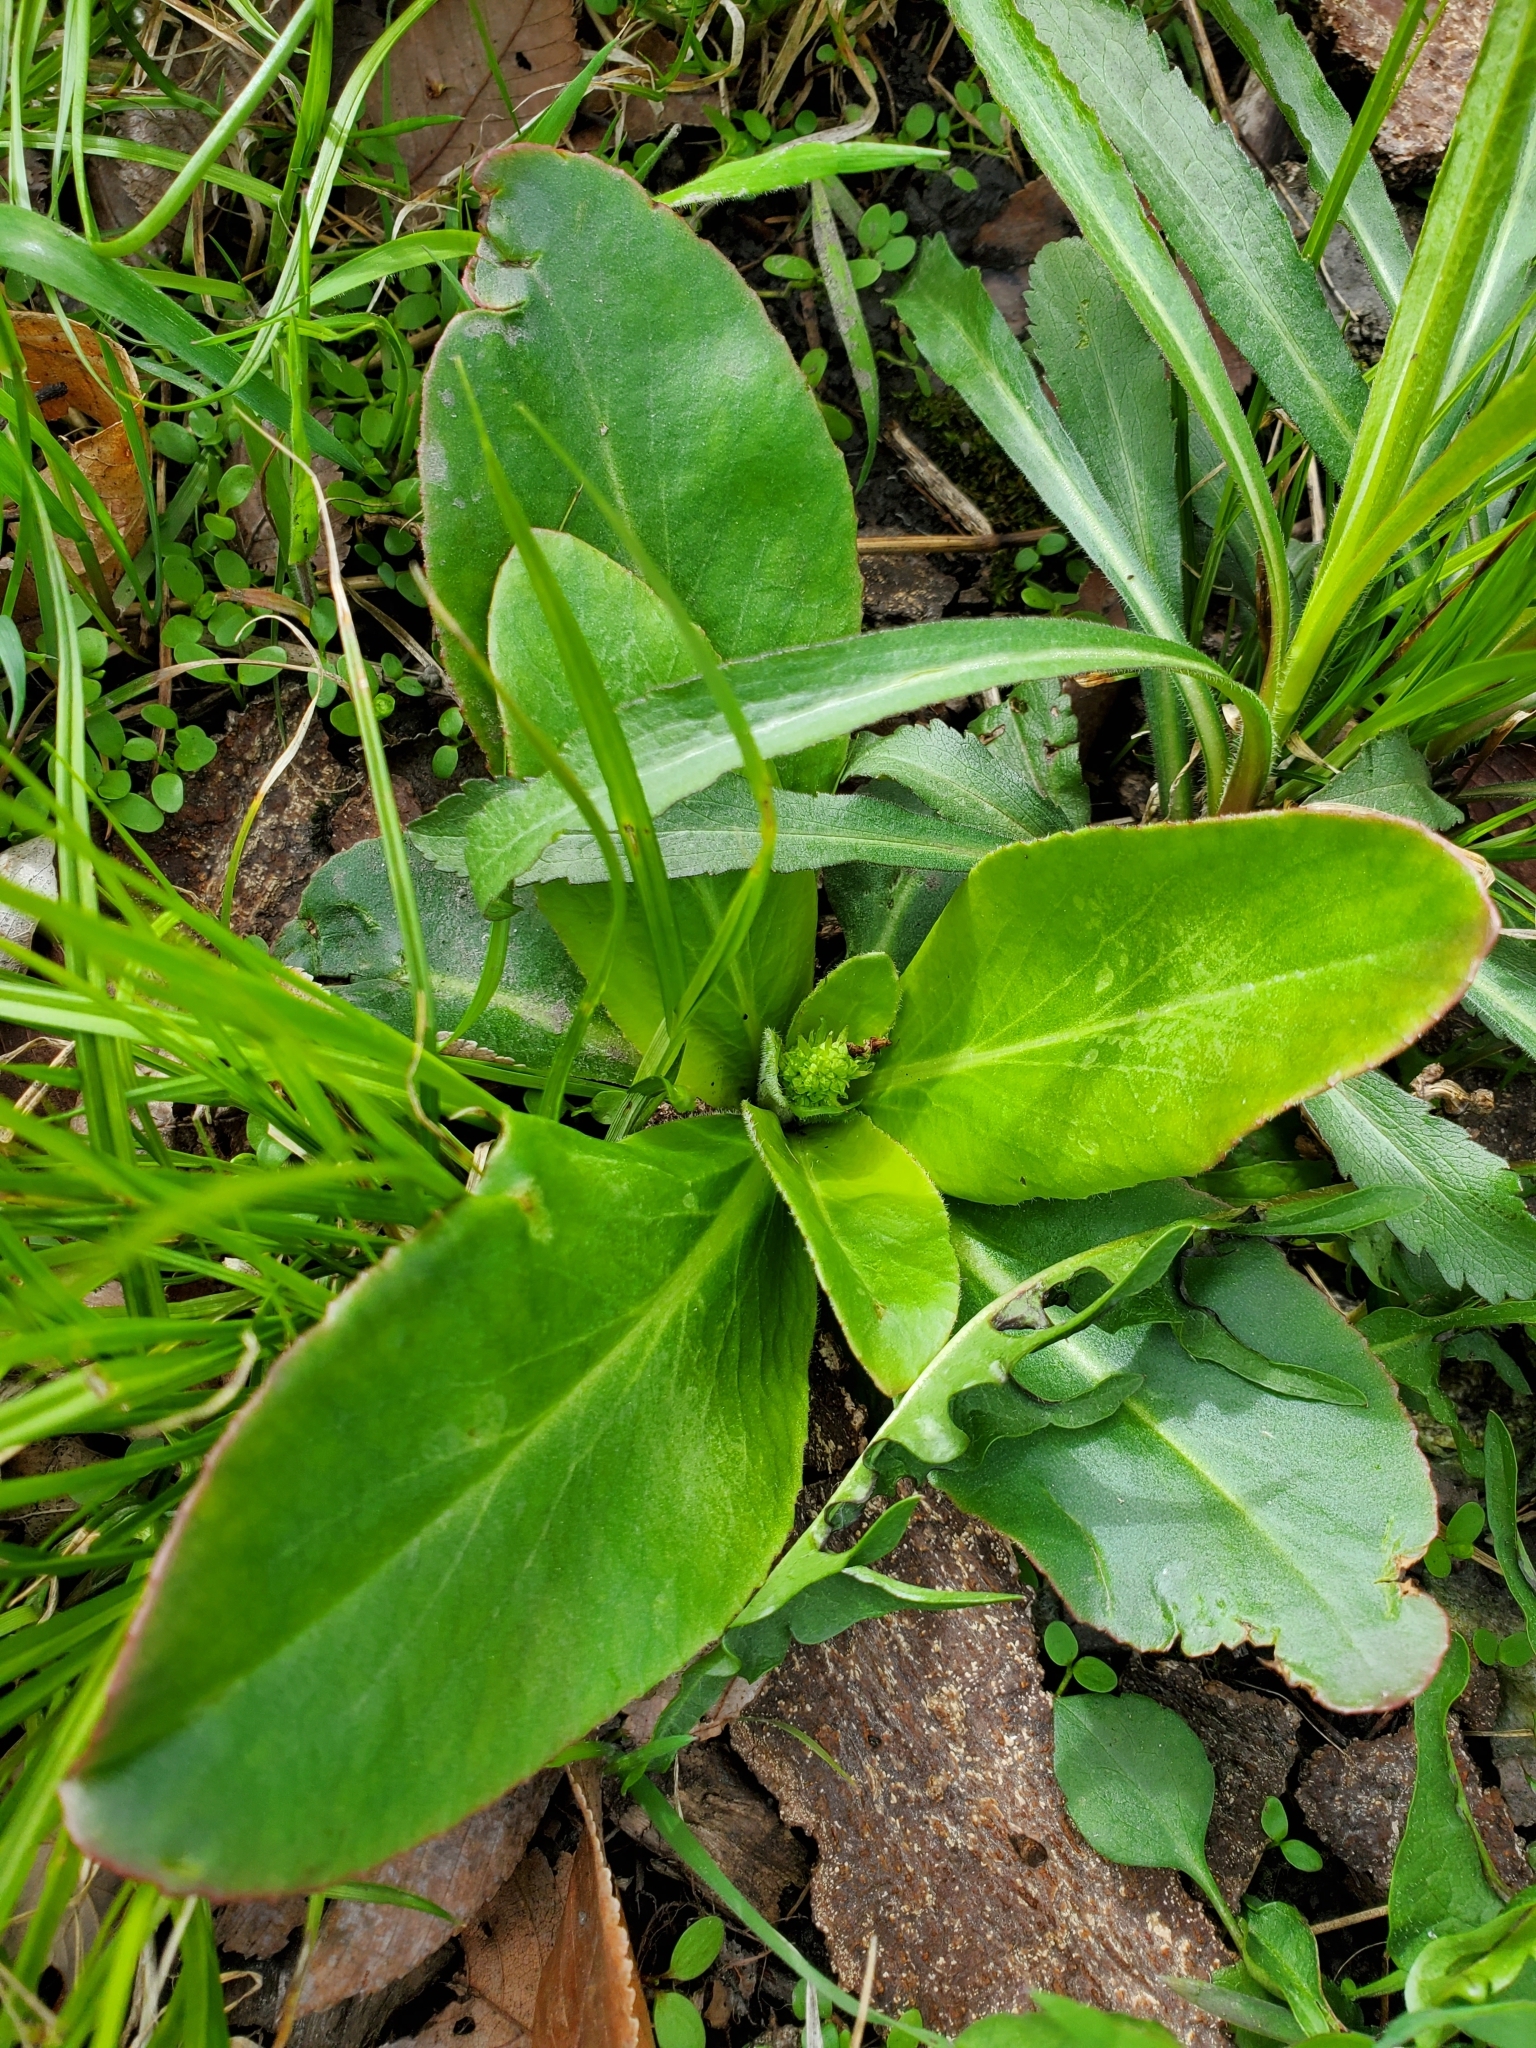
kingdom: Plantae
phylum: Tracheophyta
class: Magnoliopsida
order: Saxifragales
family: Saxifragaceae
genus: Micranthes
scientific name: Micranthes pensylvanica
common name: Marsh saxifrage
